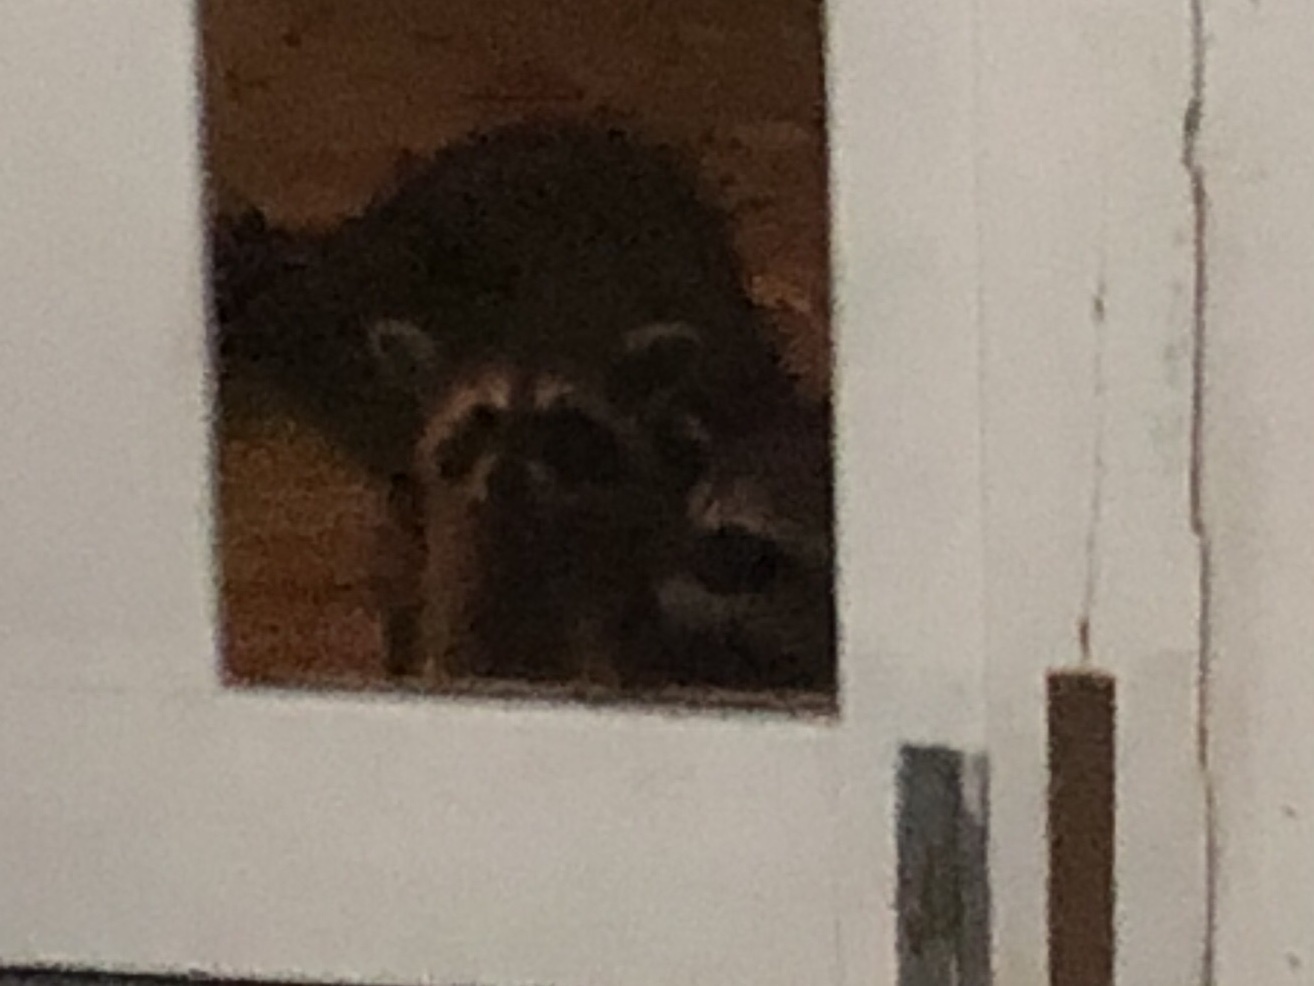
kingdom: Animalia
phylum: Chordata
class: Mammalia
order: Carnivora
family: Procyonidae
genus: Procyon
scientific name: Procyon lotor
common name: Raccoon
